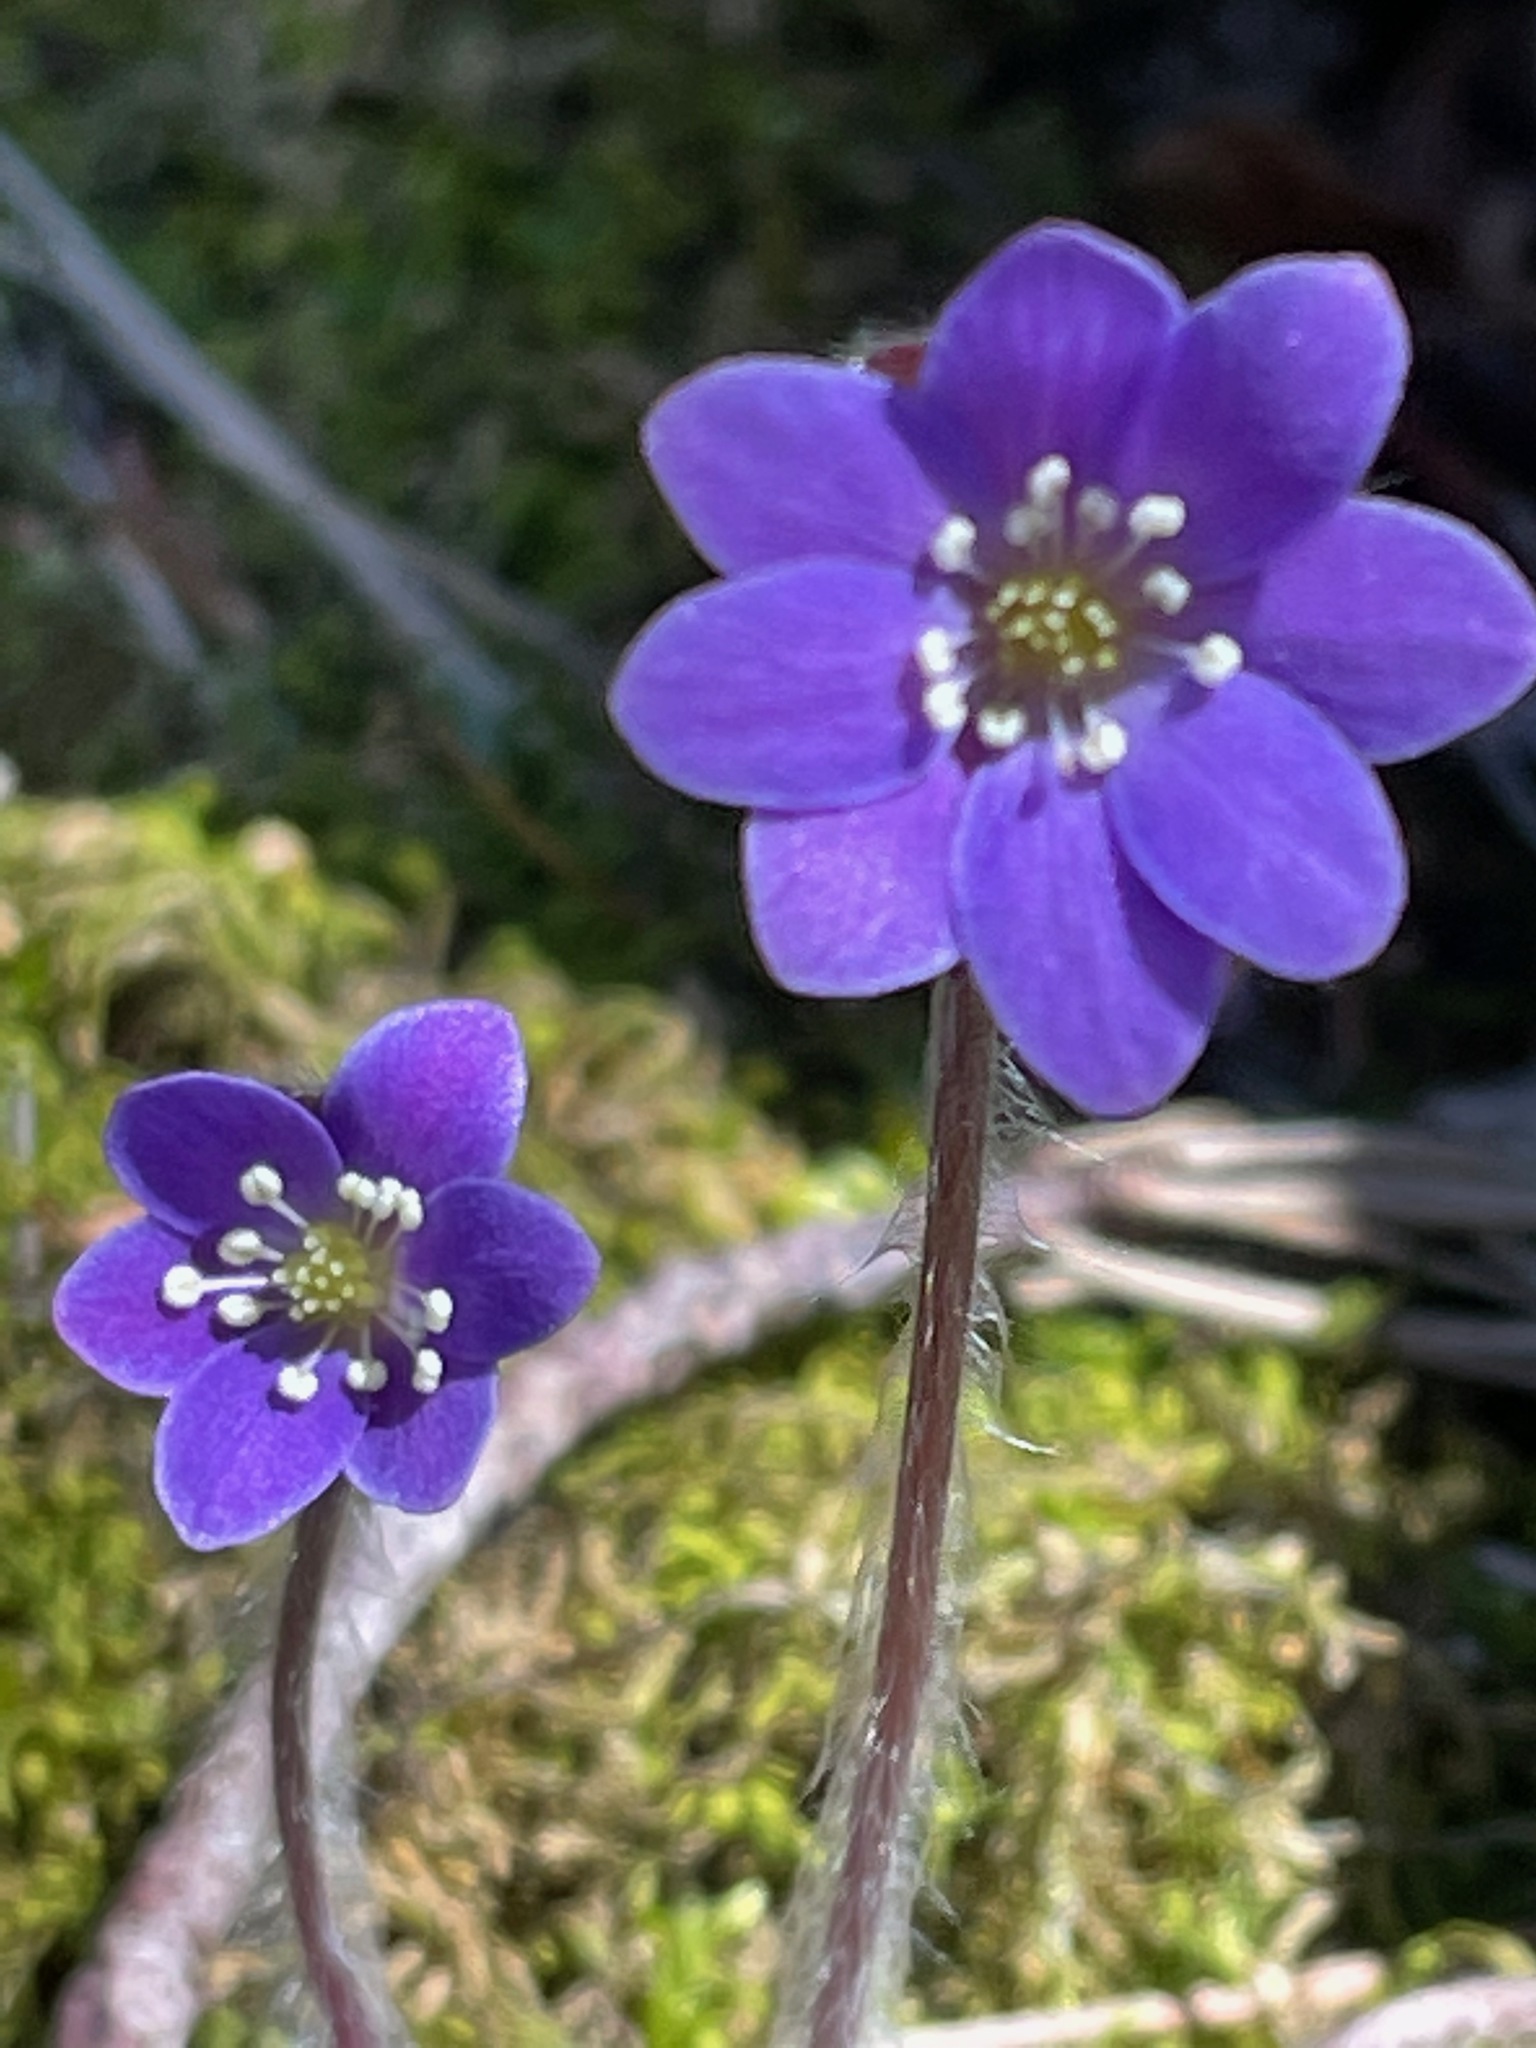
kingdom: Plantae
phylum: Tracheophyta
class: Magnoliopsida
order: Ranunculales
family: Ranunculaceae
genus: Hepatica
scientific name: Hepatica americana
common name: American hepatica
